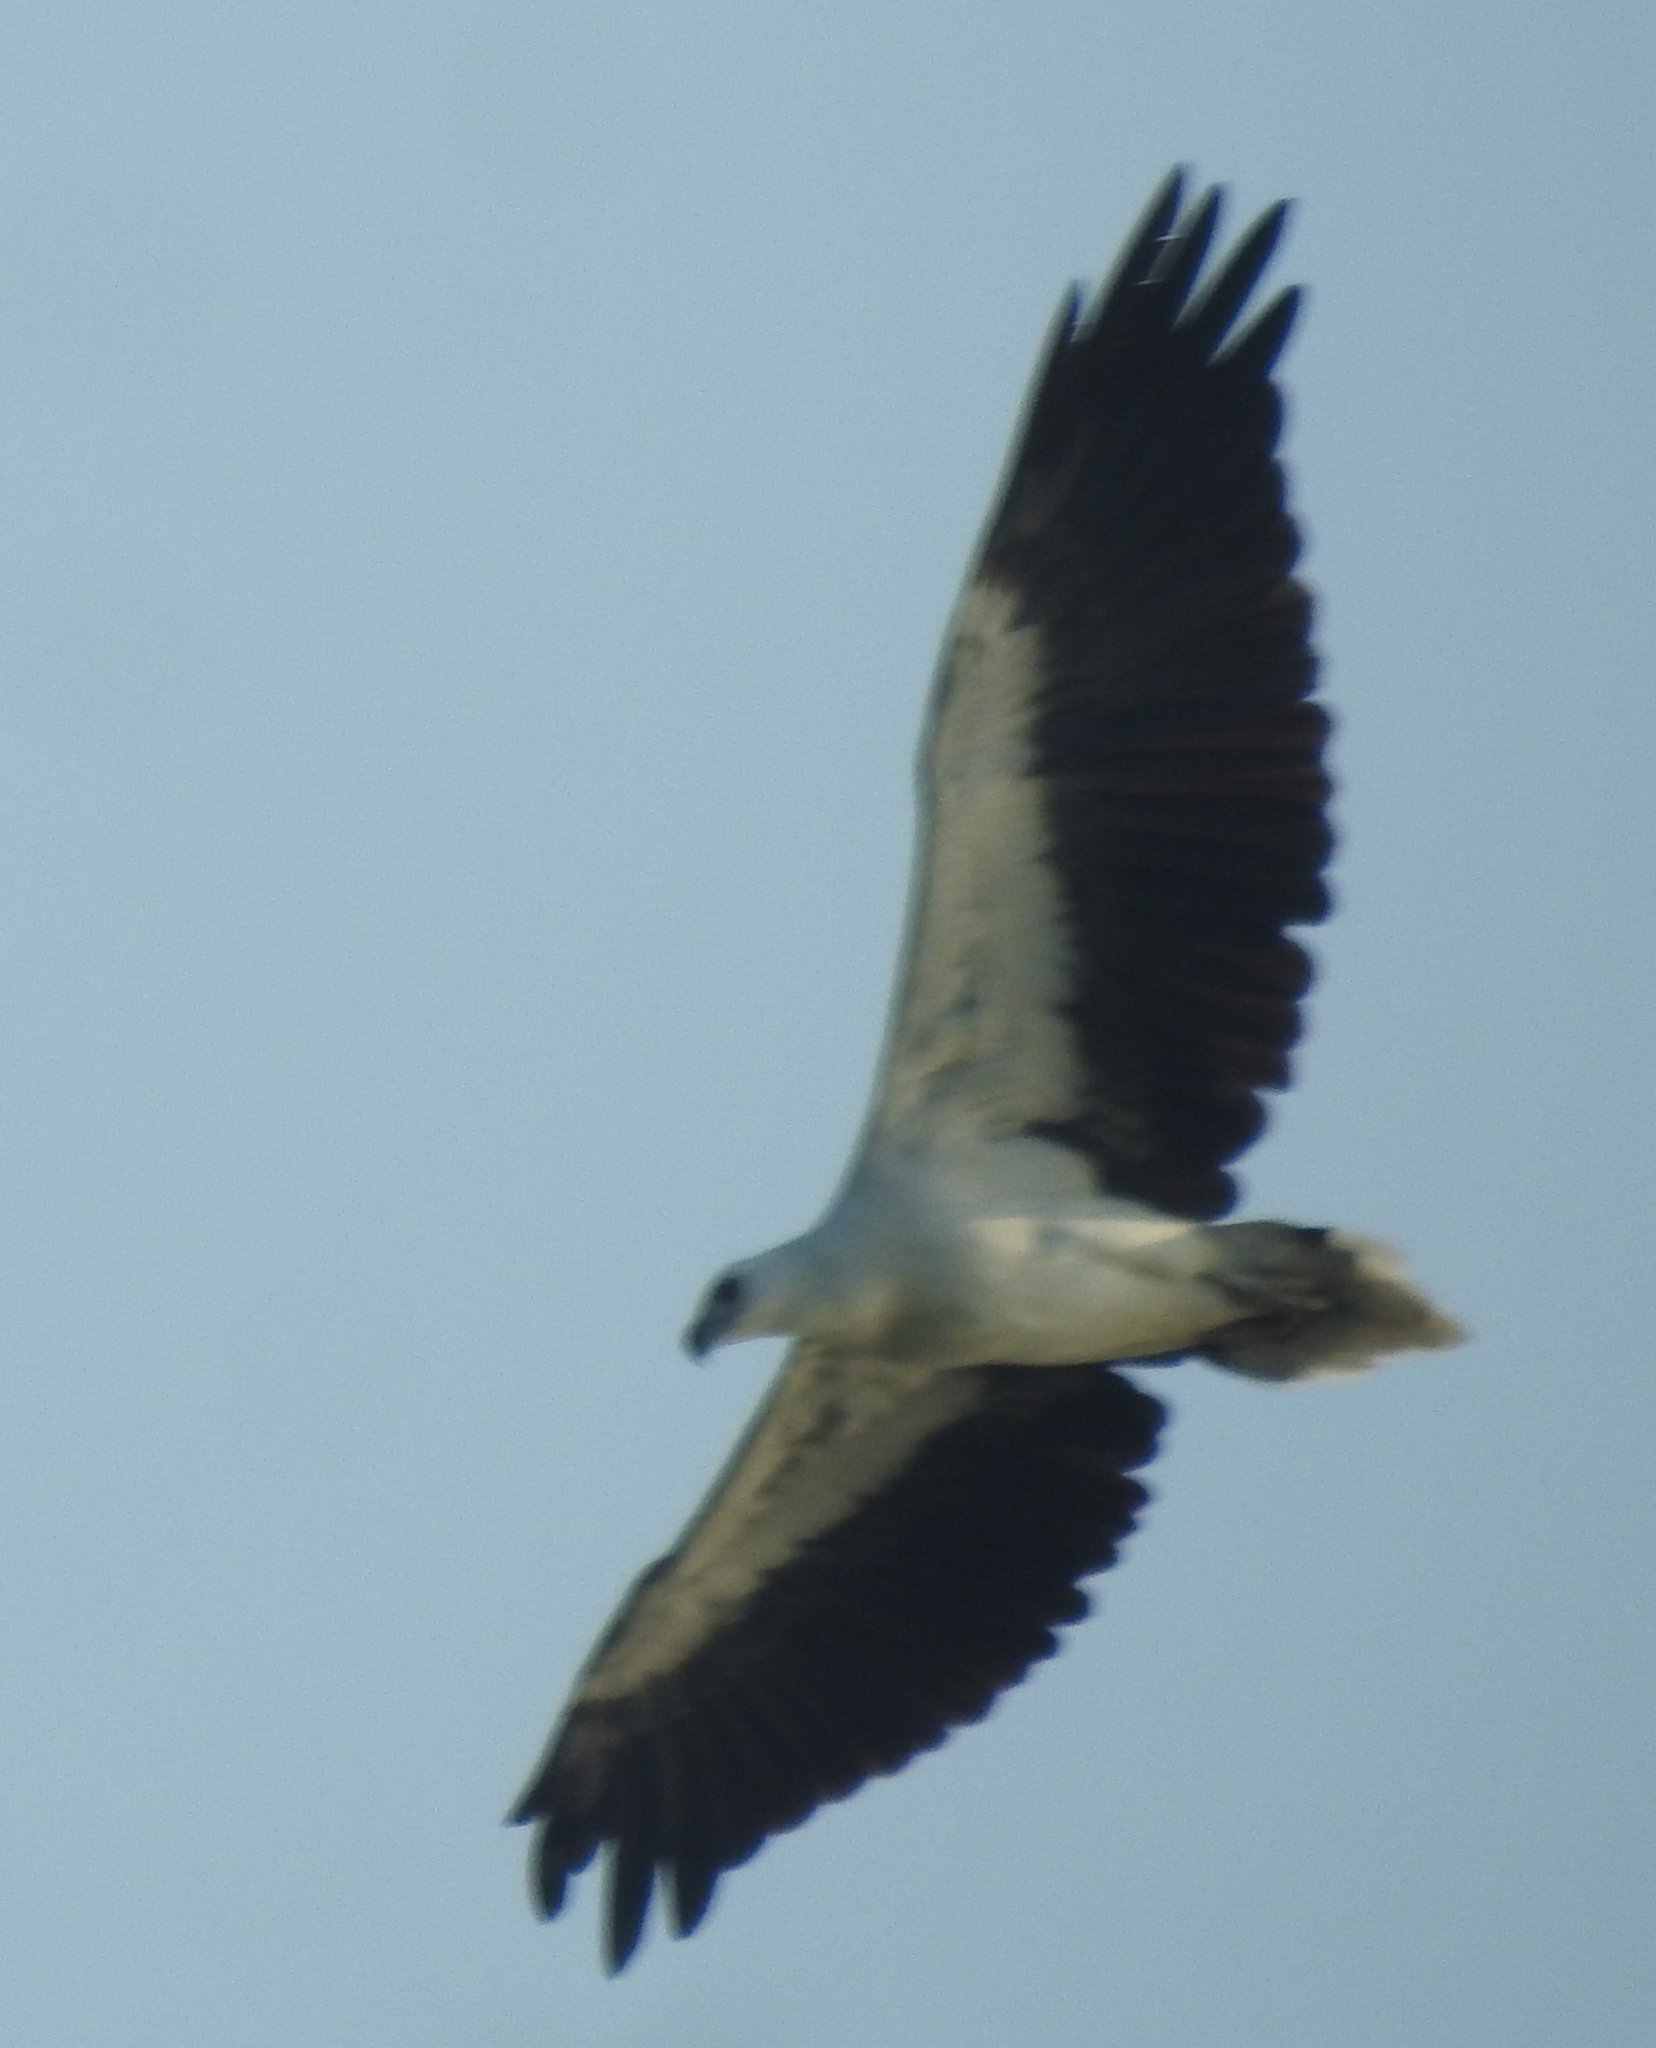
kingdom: Animalia
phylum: Chordata
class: Aves
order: Accipitriformes
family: Accipitridae
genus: Haliaeetus
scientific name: Haliaeetus leucogaster
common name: White-bellied sea eagle
